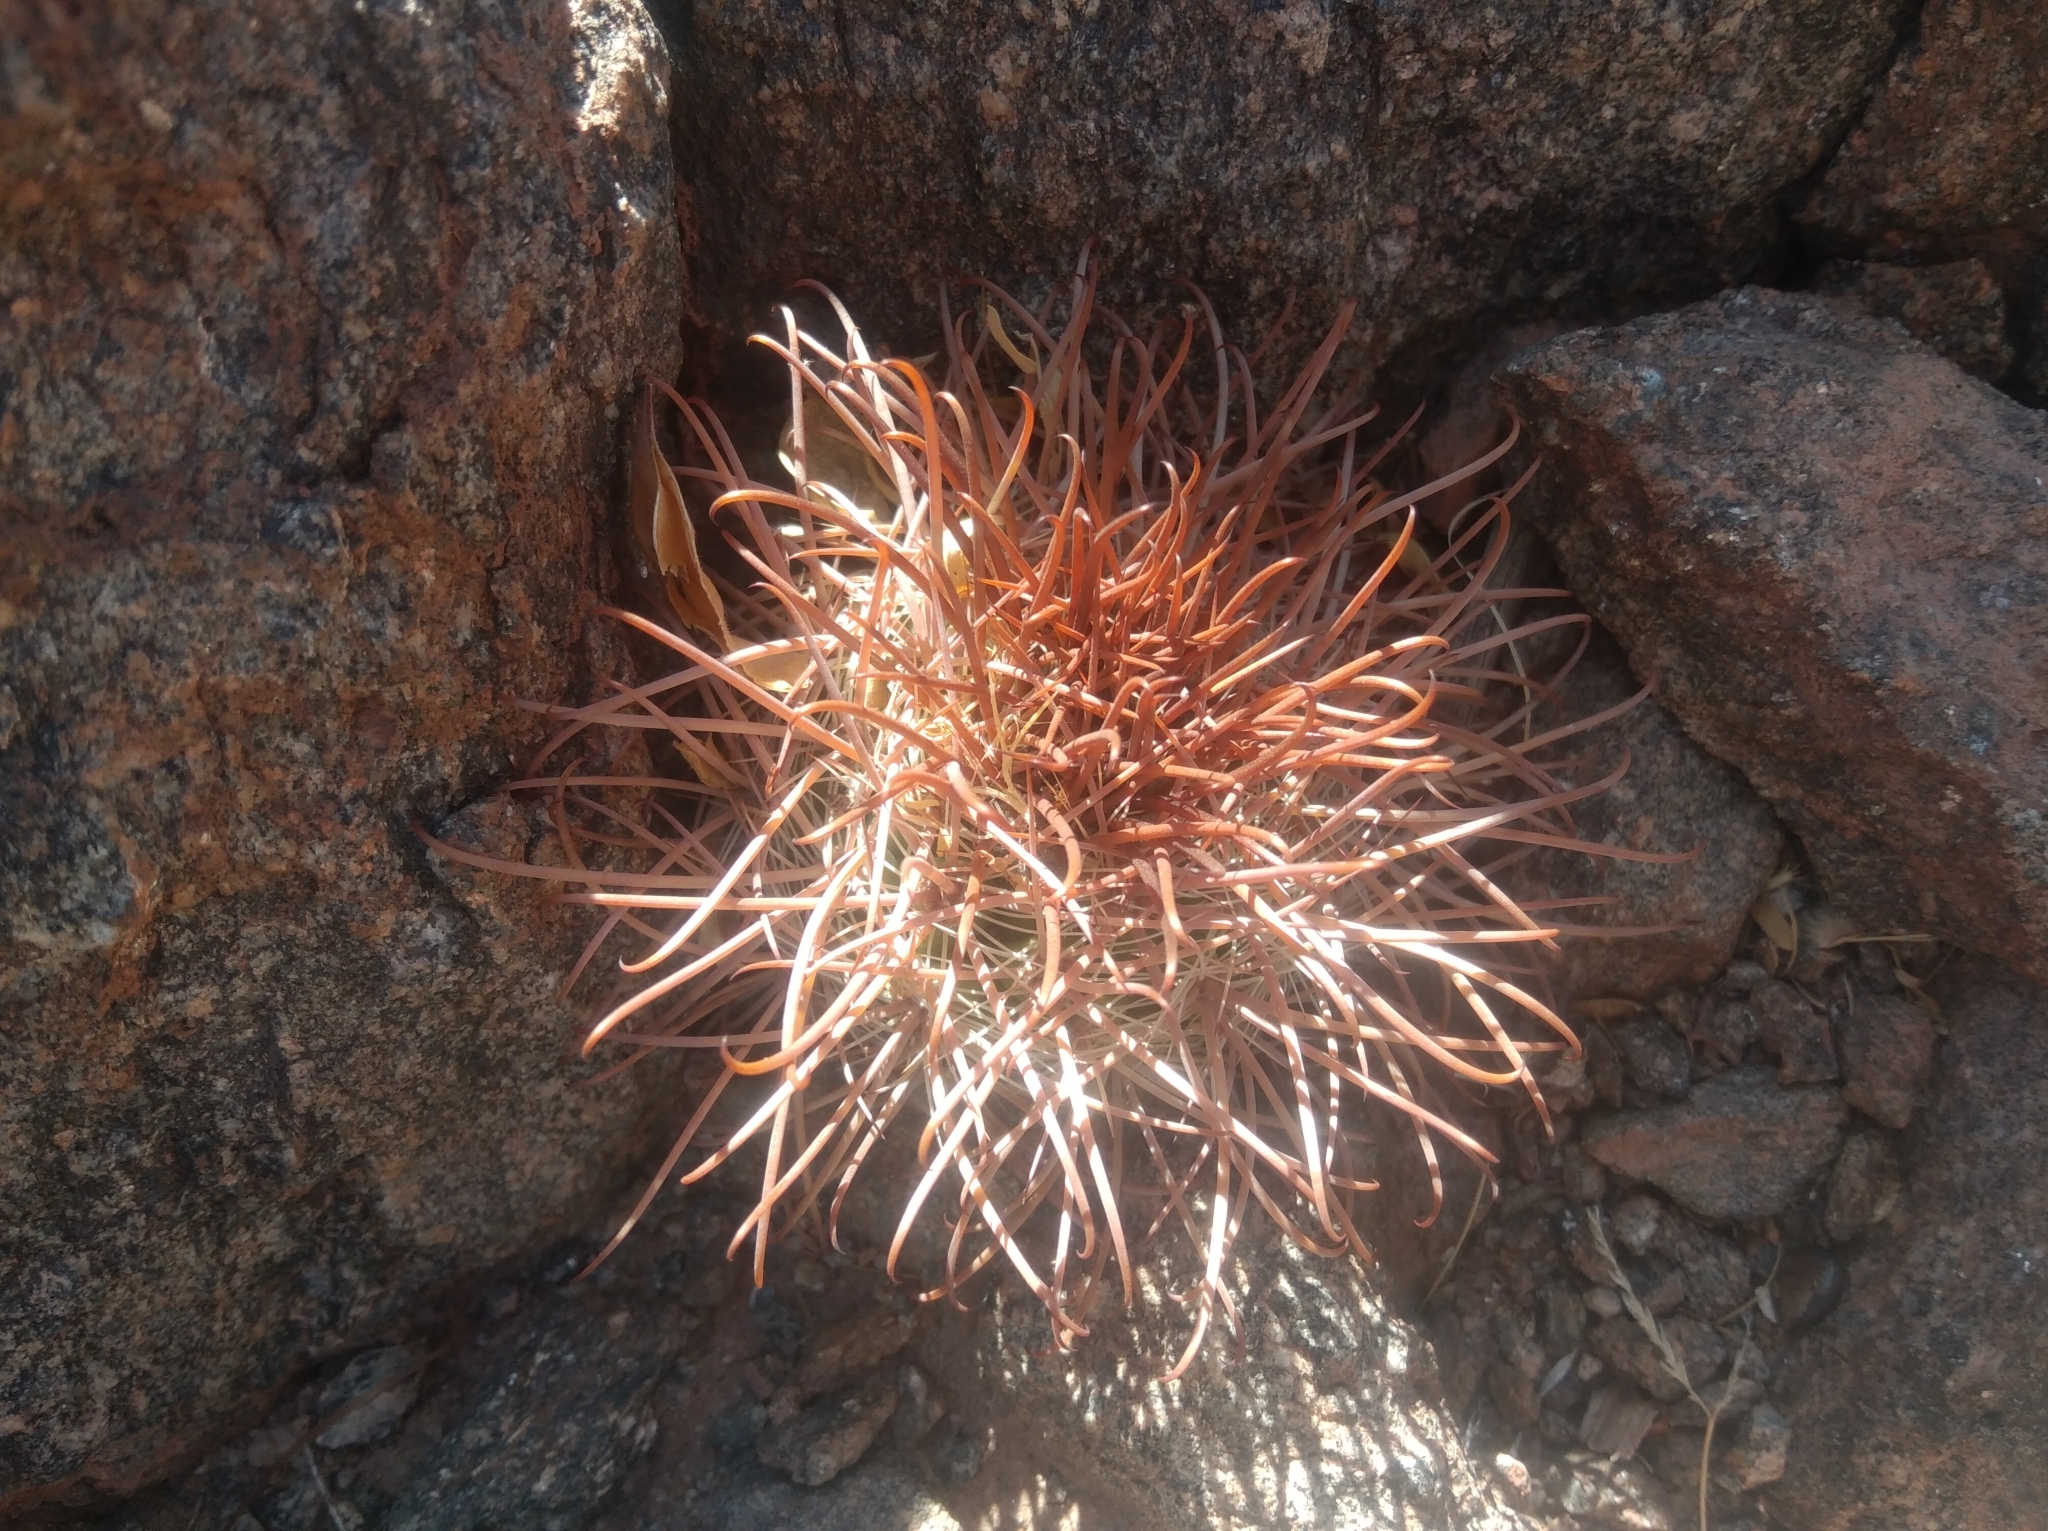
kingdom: Plantae
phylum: Tracheophyta
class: Magnoliopsida
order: Caryophyllales
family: Cactaceae
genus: Parodia
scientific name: Parodia aureicentra
